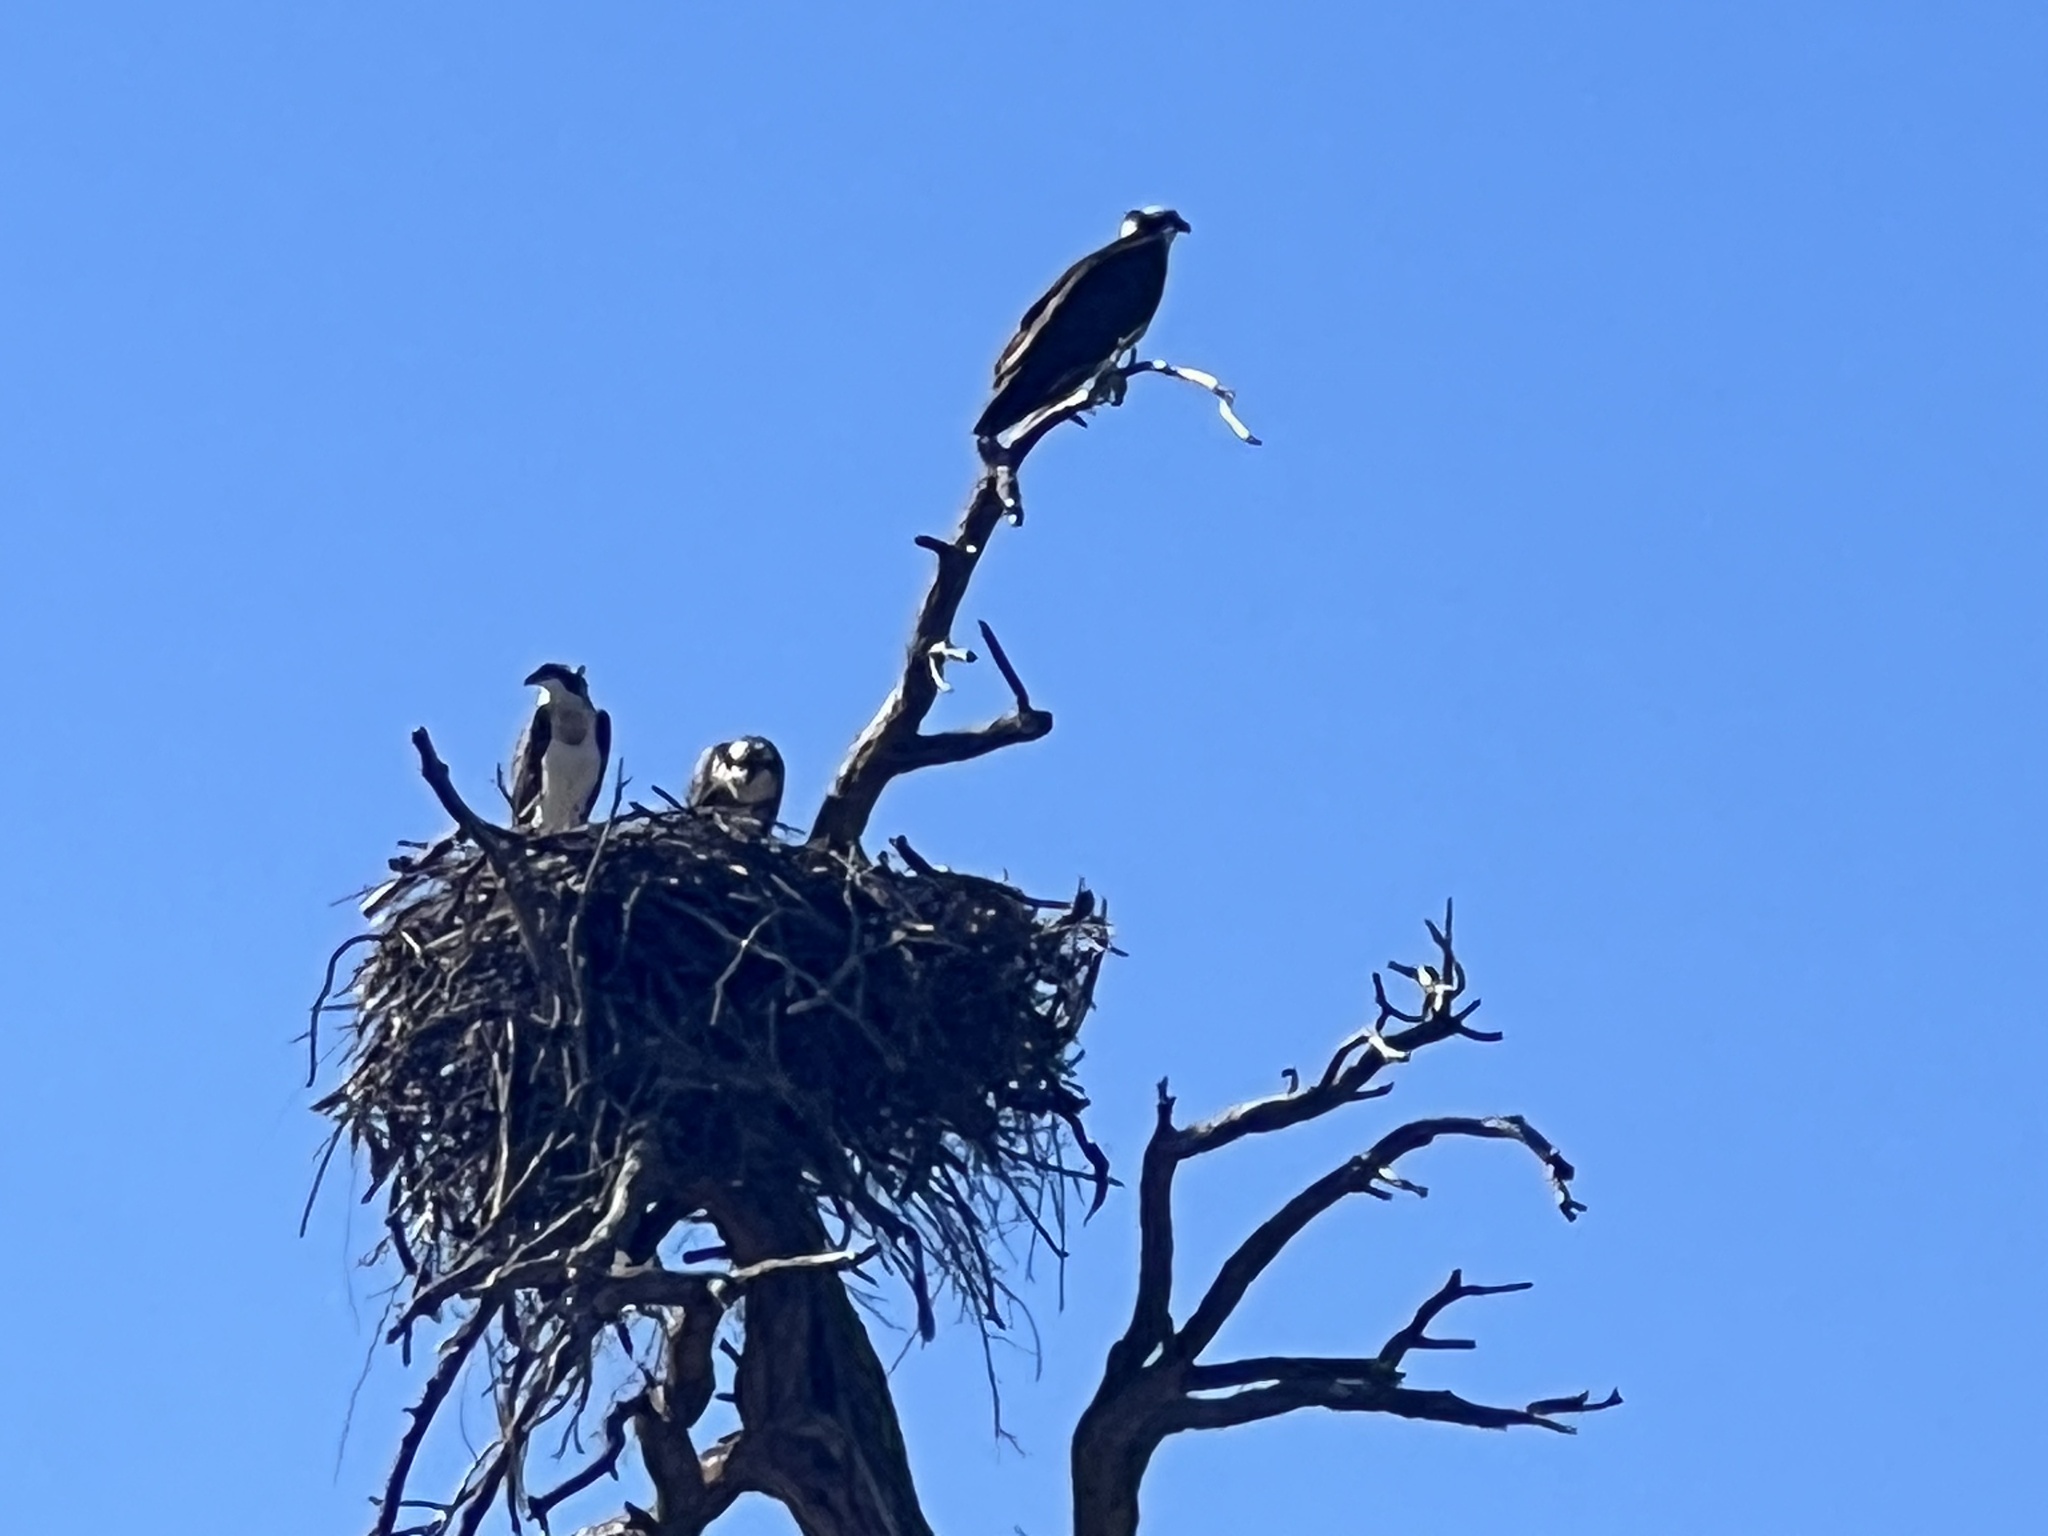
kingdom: Animalia
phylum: Chordata
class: Aves
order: Accipitriformes
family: Pandionidae
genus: Pandion
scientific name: Pandion haliaetus
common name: Osprey
